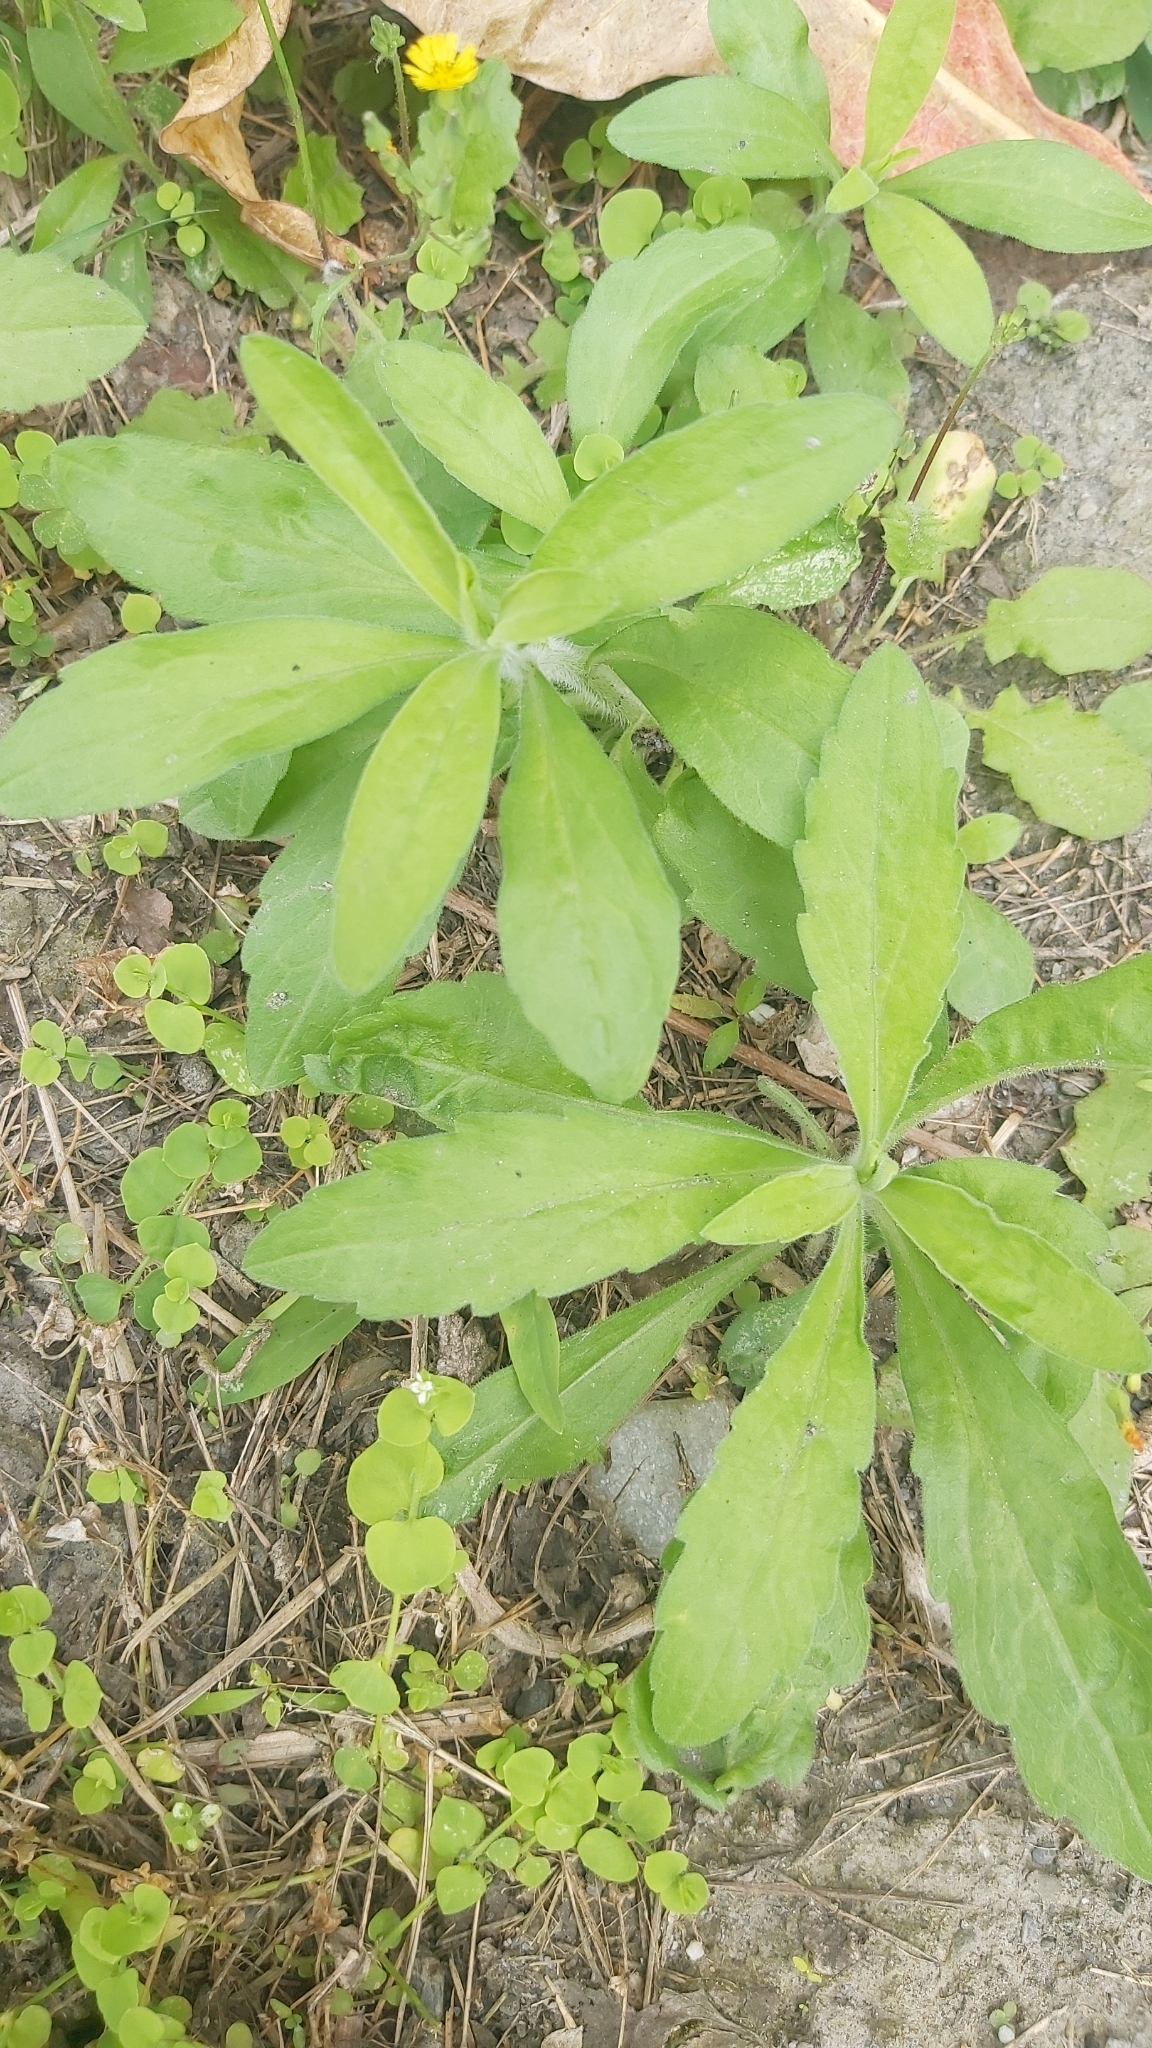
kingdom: Plantae
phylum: Tracheophyta
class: Magnoliopsida
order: Asterales
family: Asteraceae
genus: Erigeron
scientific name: Erigeron sumatrensis
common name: Daisy
